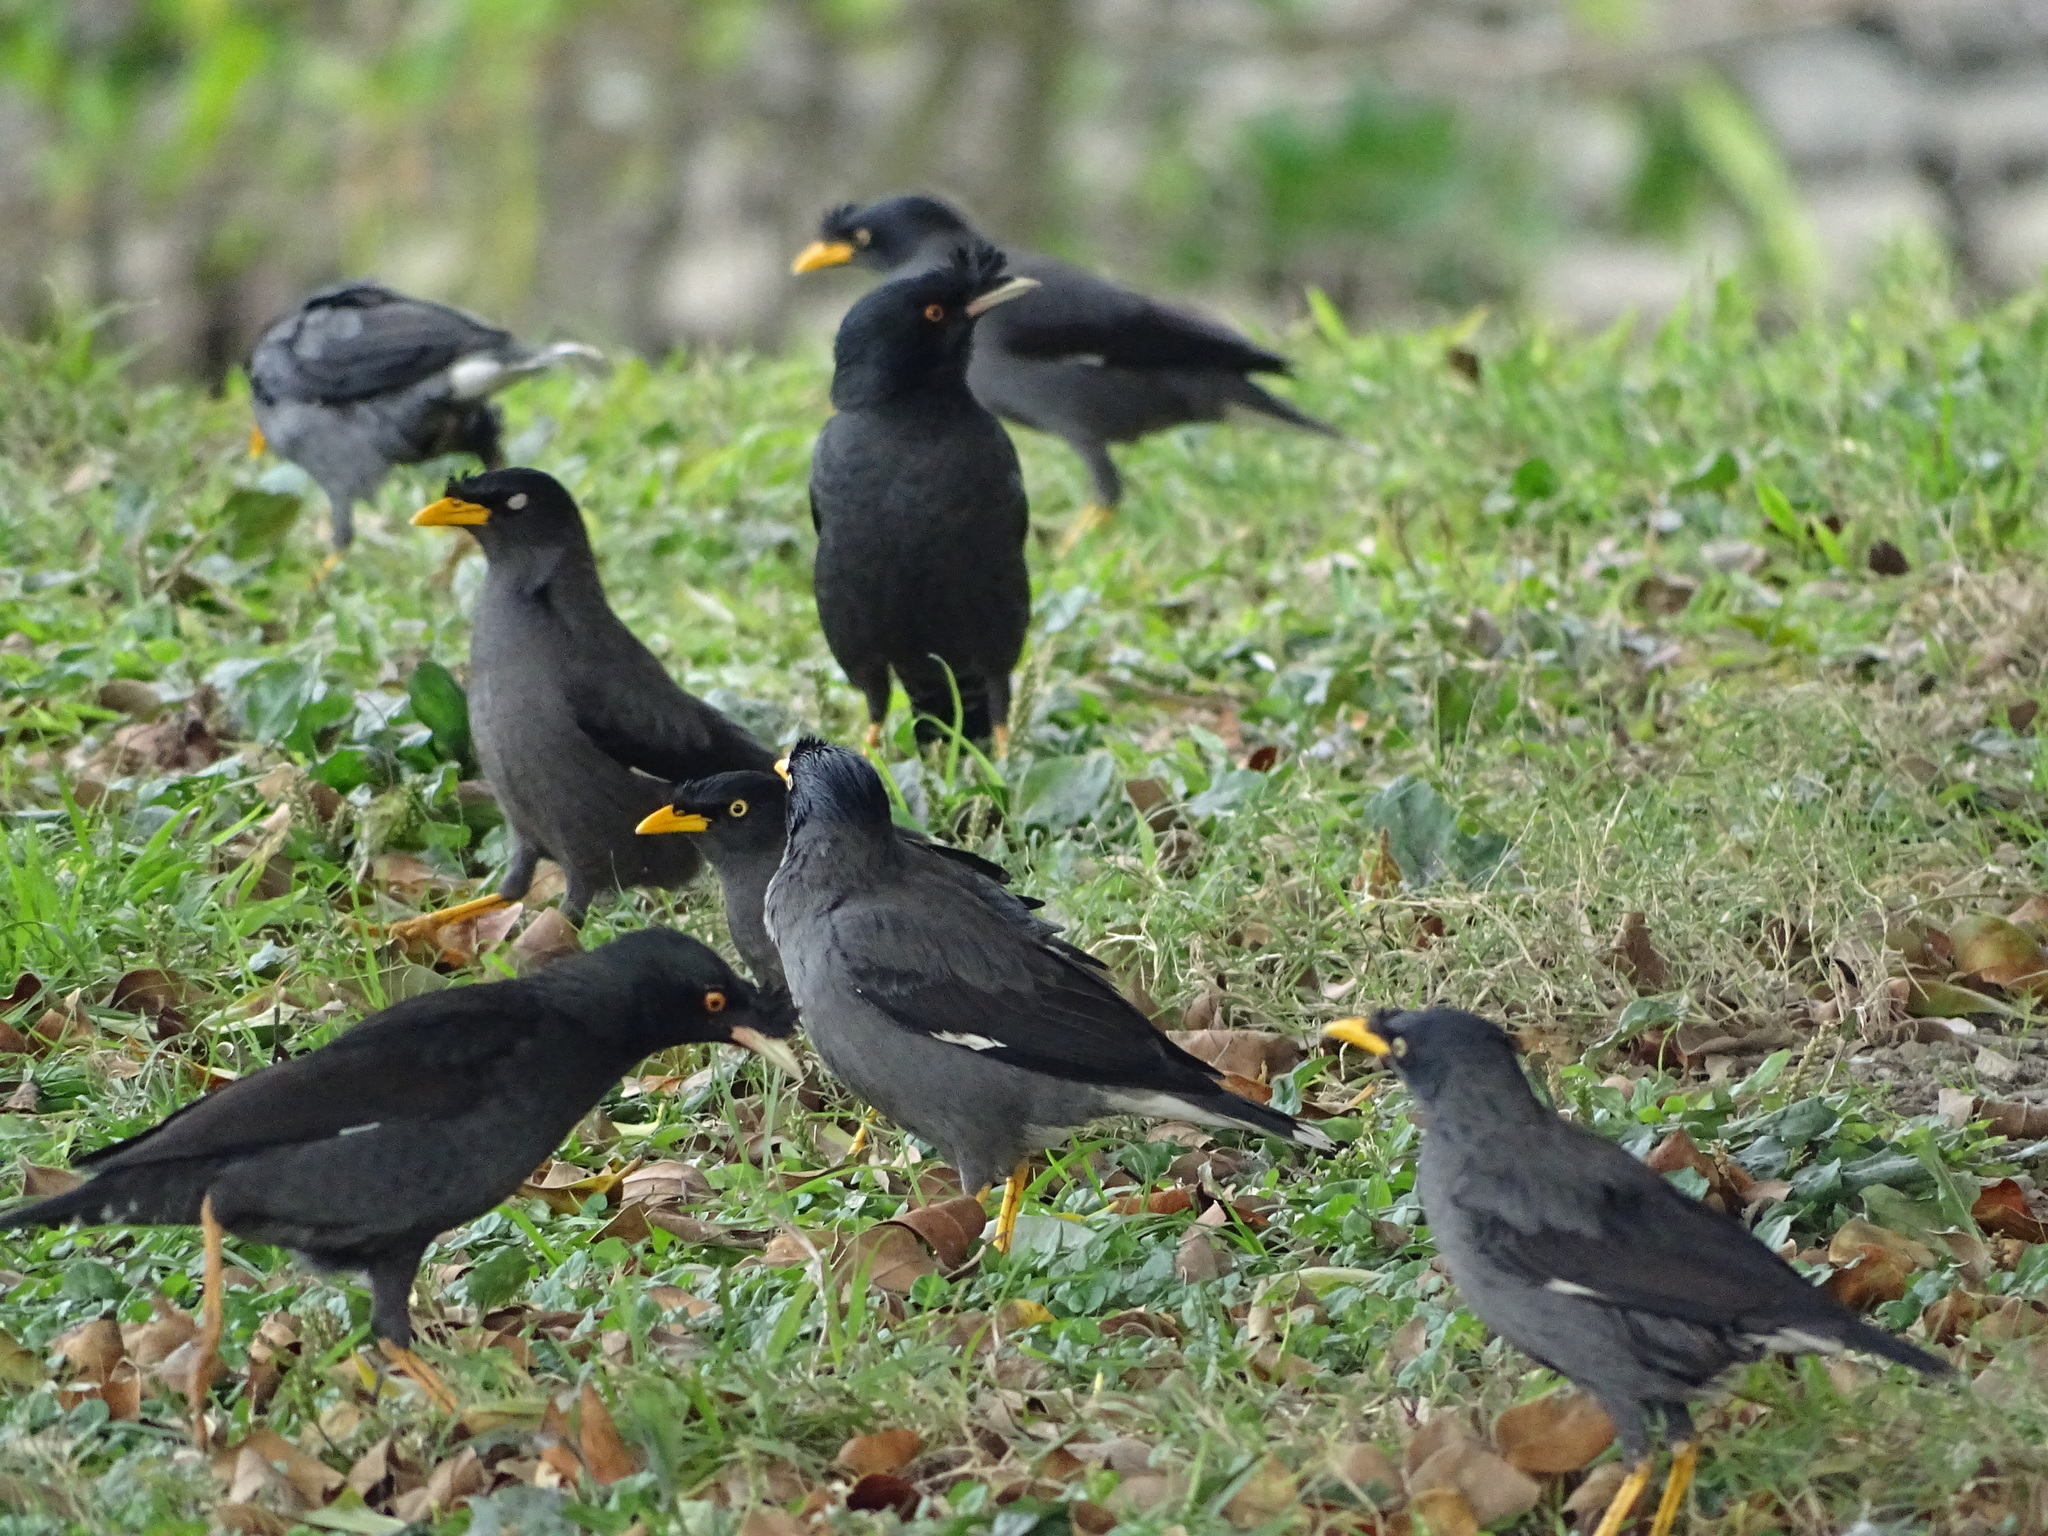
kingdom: Animalia
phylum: Chordata
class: Aves
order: Passeriformes
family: Sturnidae
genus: Acridotheres
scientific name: Acridotheres javanicus
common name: Javan myna
